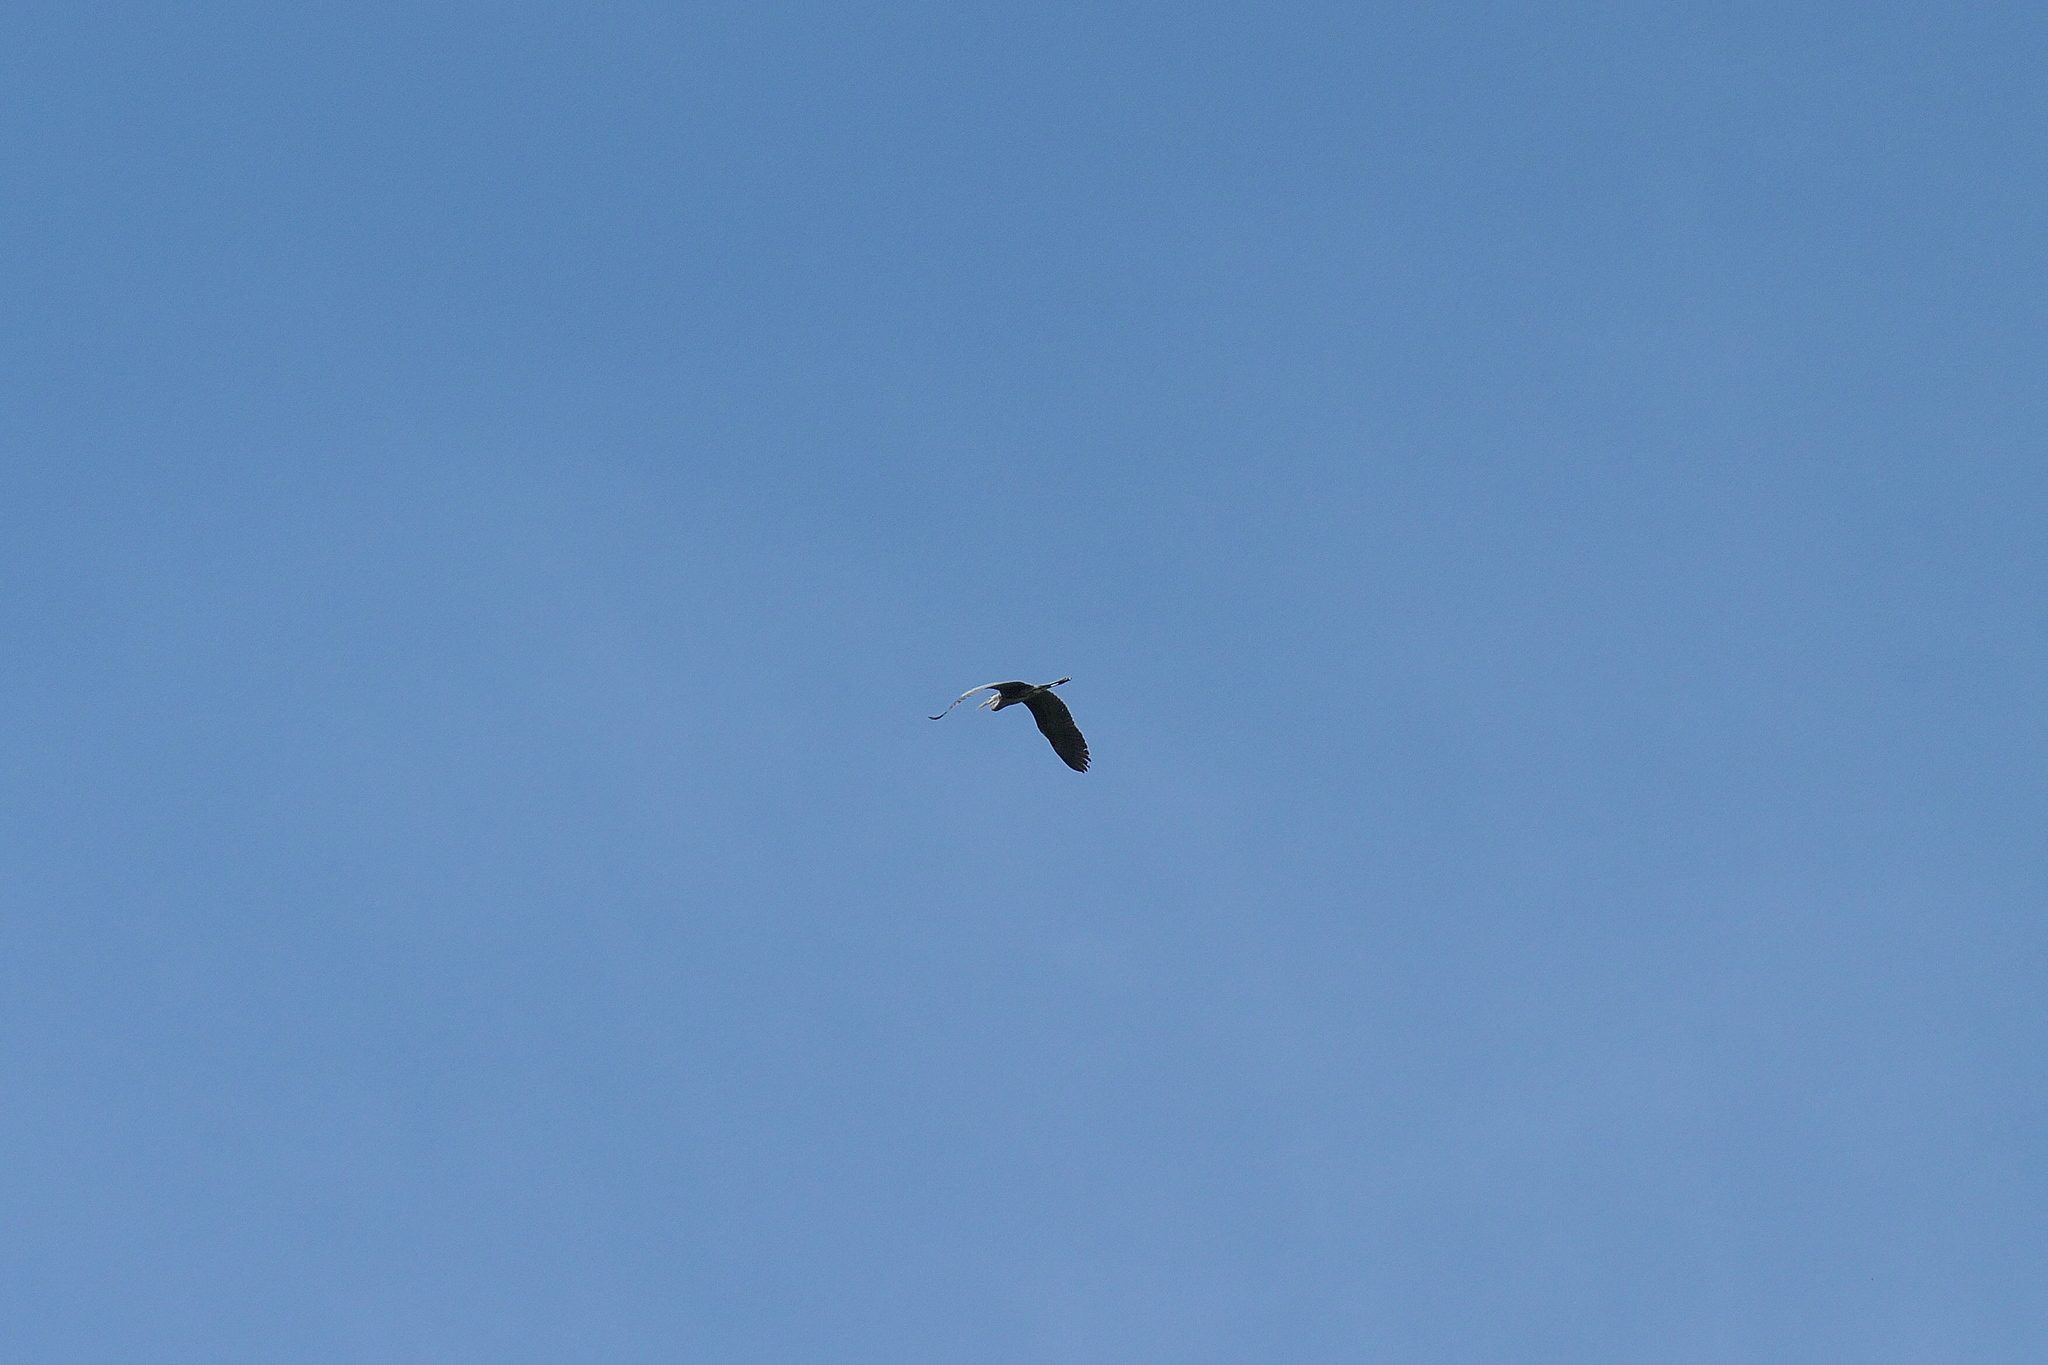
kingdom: Animalia
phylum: Chordata
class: Aves
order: Pelecaniformes
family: Ardeidae
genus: Ardea
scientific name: Ardea herodias
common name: Great blue heron
